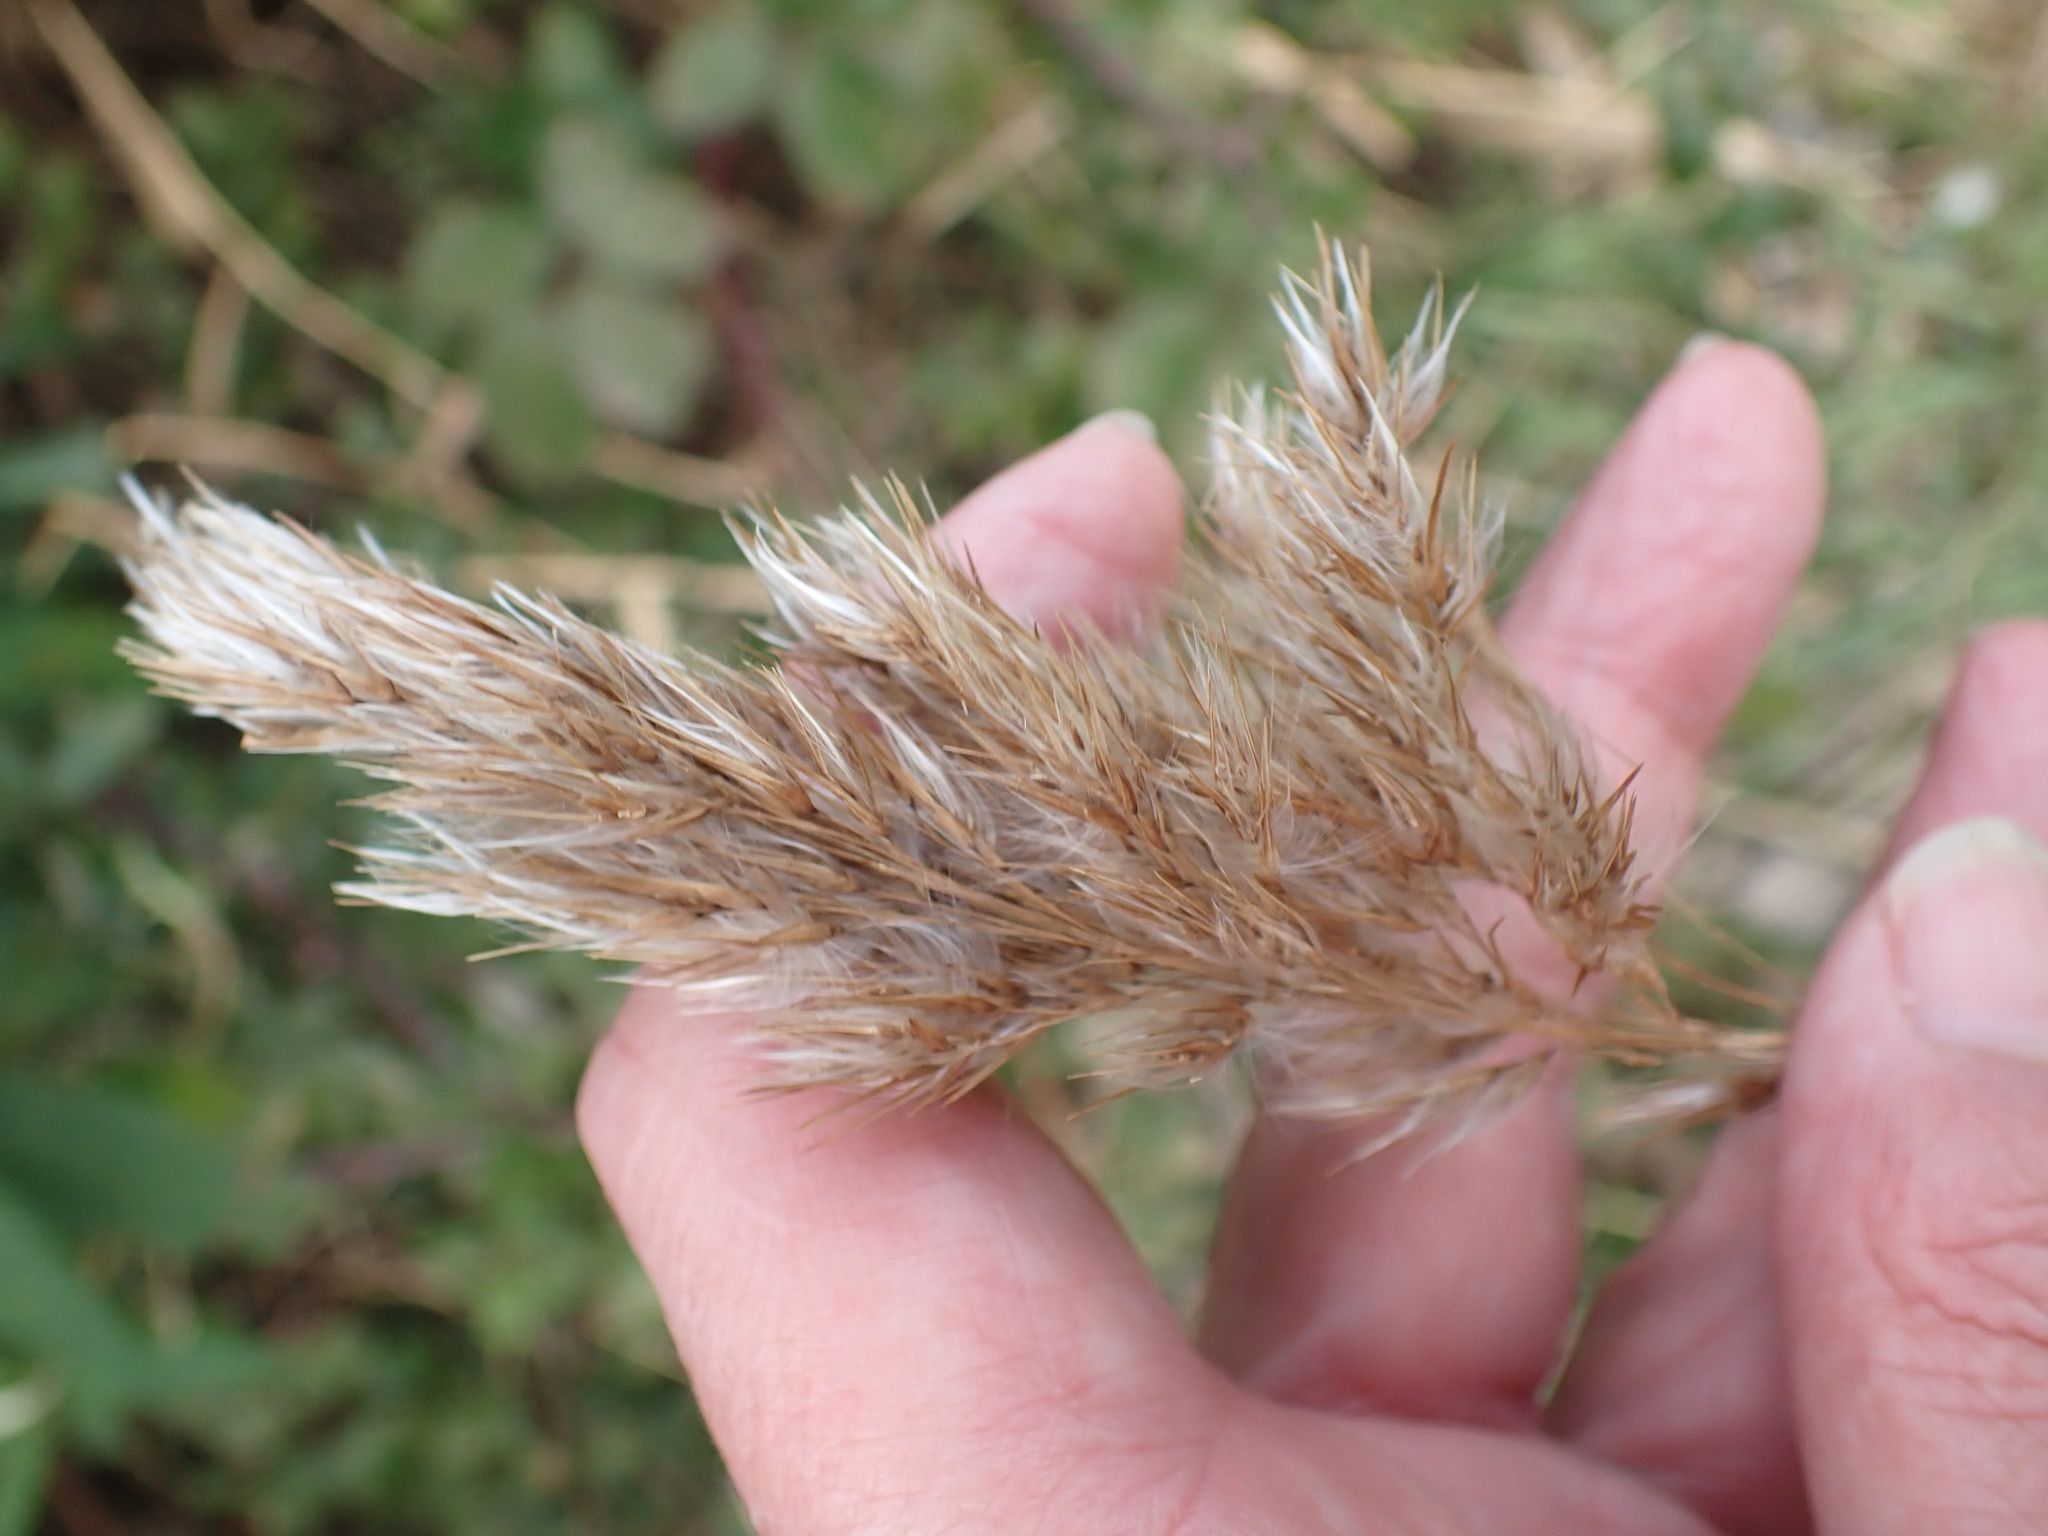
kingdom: Plantae
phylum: Tracheophyta
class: Liliopsida
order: Poales
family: Poaceae
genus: Phragmites
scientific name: Phragmites australis
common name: Common reed
